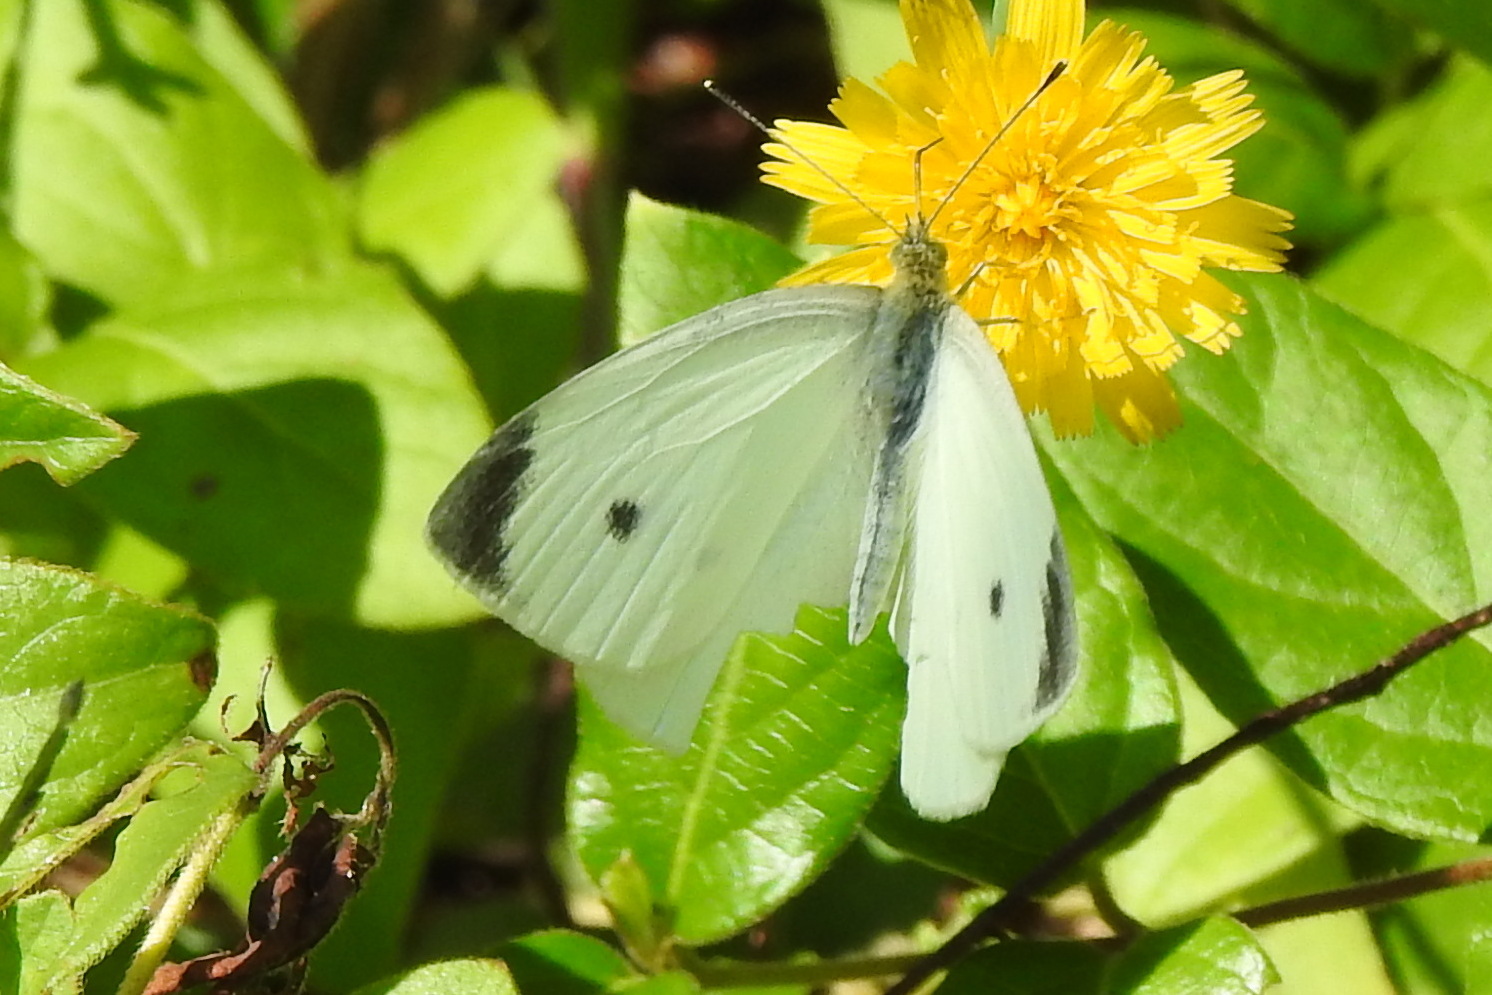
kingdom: Animalia
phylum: Arthropoda
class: Insecta
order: Lepidoptera
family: Pieridae
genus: Pieris
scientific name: Pieris rapae
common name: Small white
